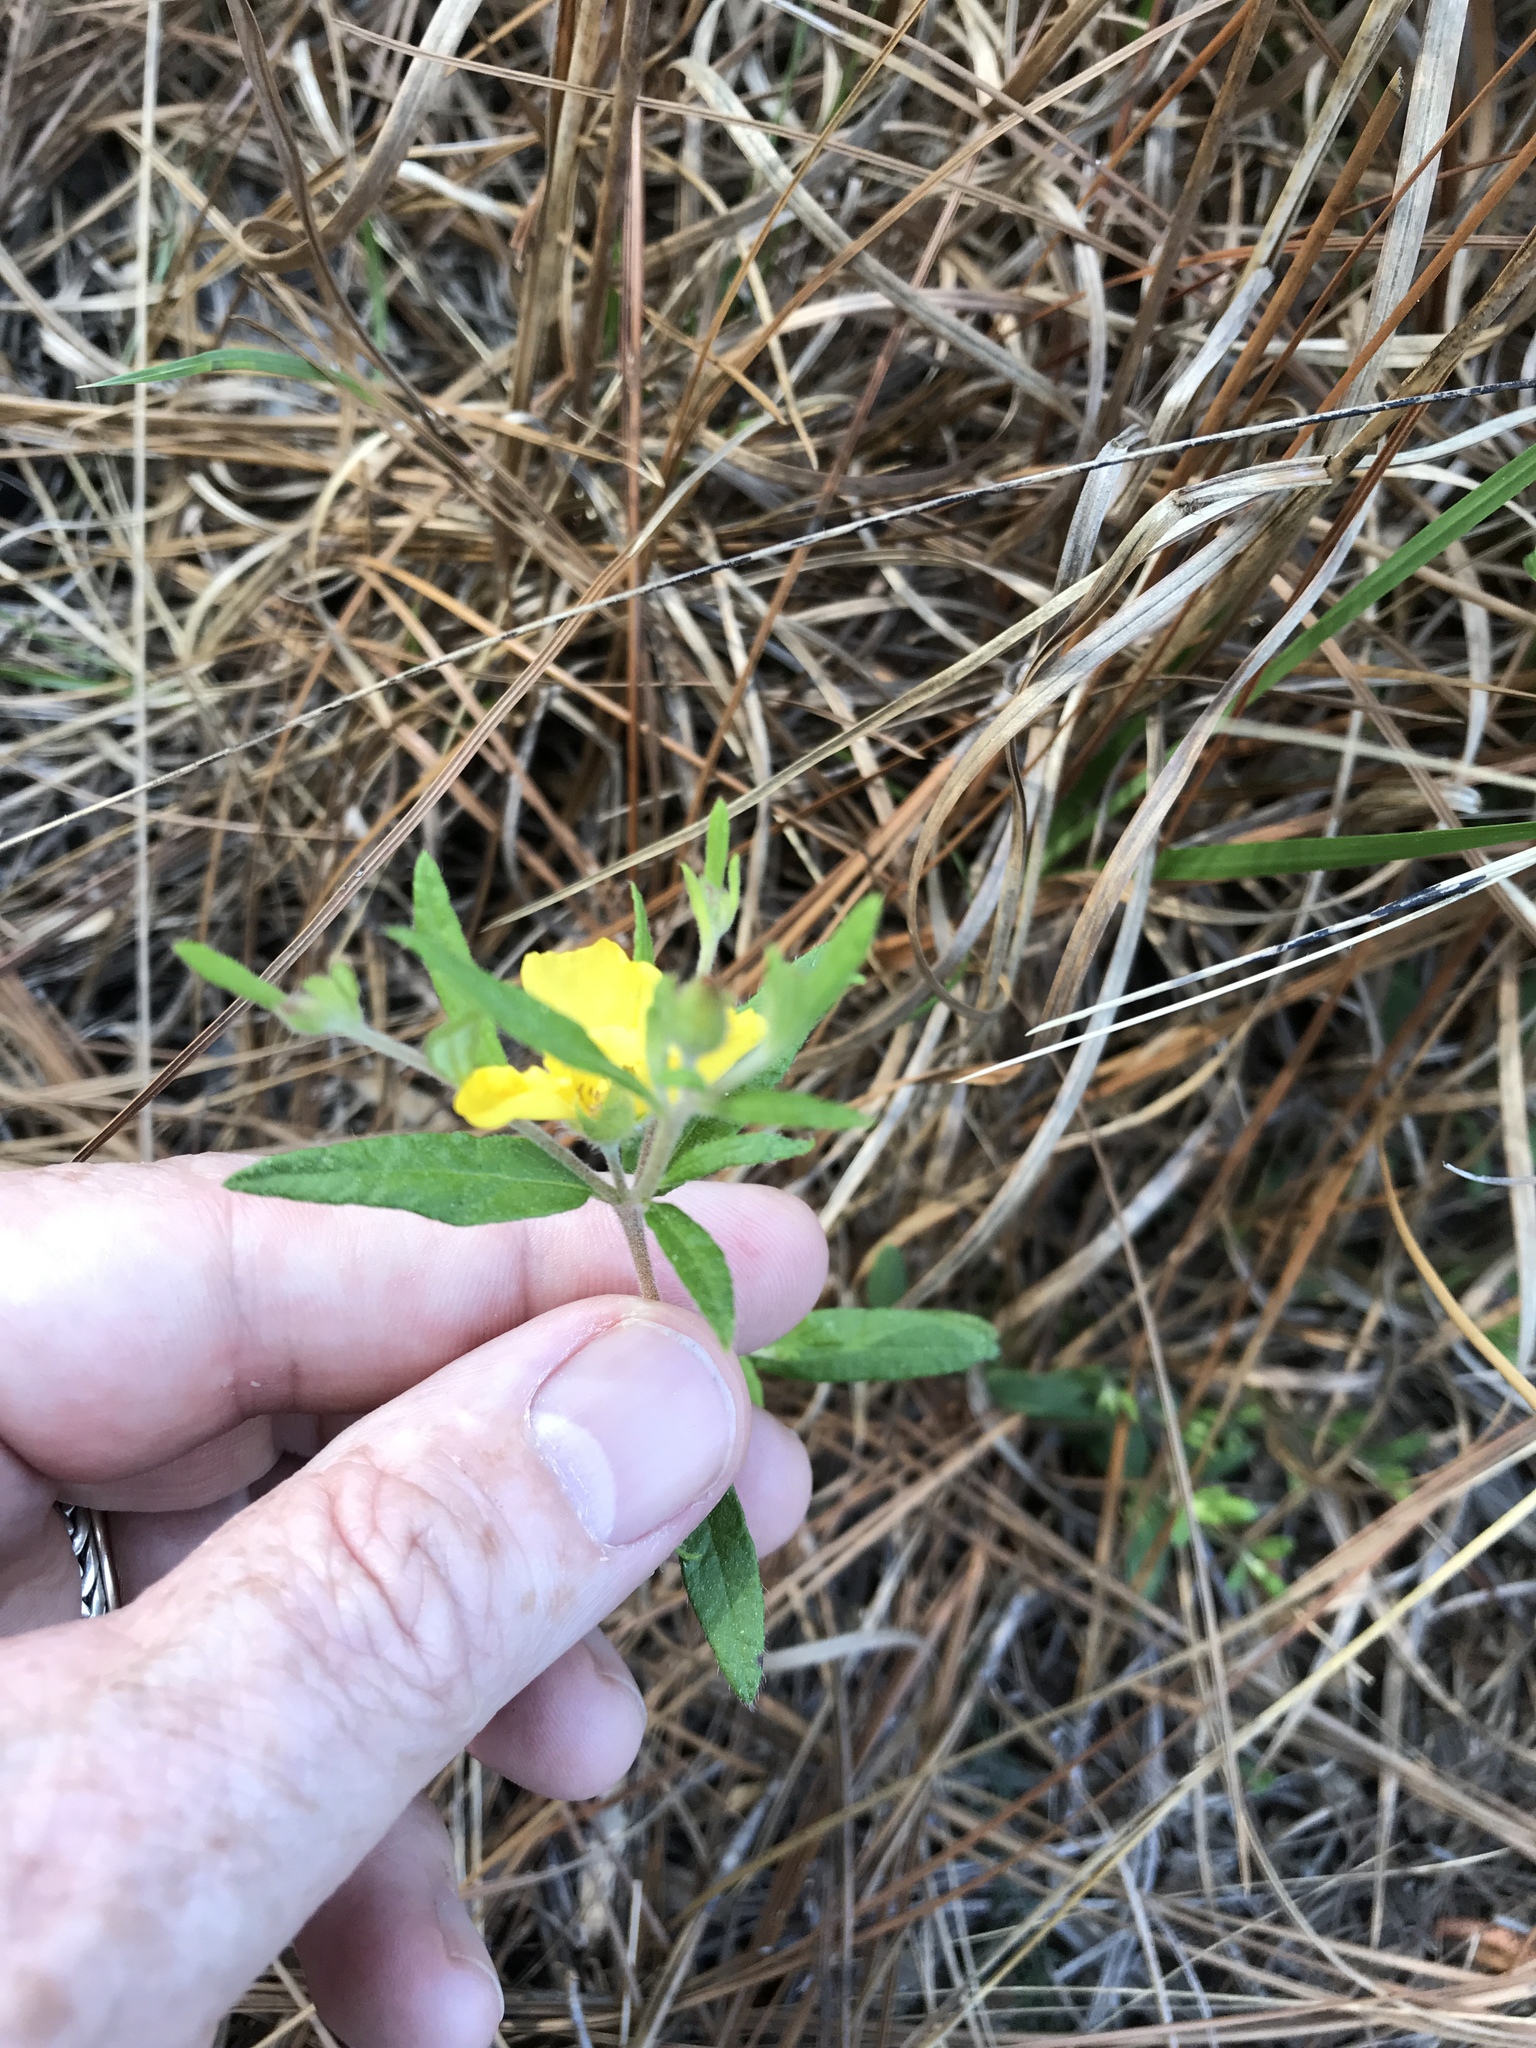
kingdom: Plantae
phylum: Tracheophyta
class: Magnoliopsida
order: Myrtales
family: Onagraceae
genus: Oenothera
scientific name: Oenothera fruticosa
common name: Southern sundrops
